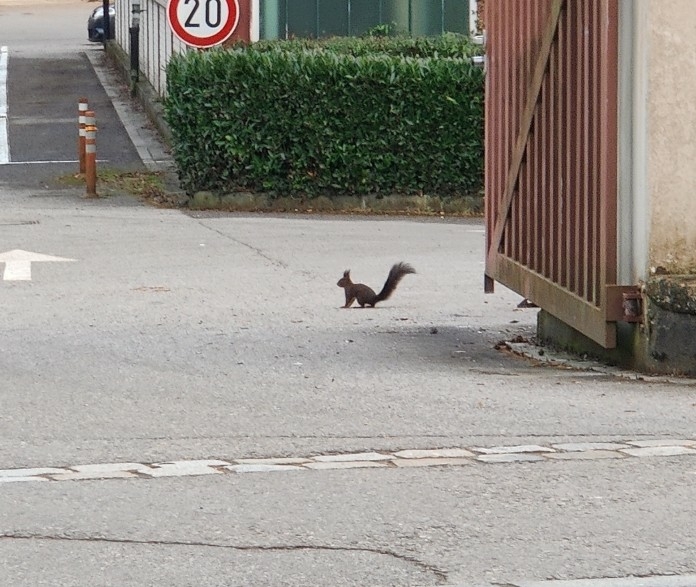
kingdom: Animalia
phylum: Chordata
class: Mammalia
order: Rodentia
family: Sciuridae
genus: Sciurus
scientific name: Sciurus vulgaris
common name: Eurasian red squirrel
